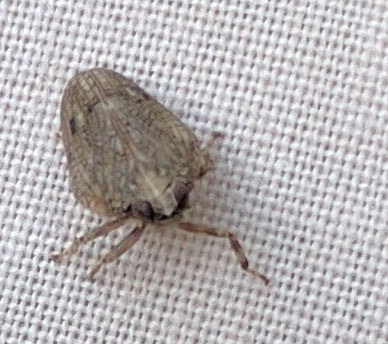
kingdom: Animalia
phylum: Arthropoda
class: Insecta
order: Hemiptera
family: Issidae
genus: Issus
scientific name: Issus coleoptratus
